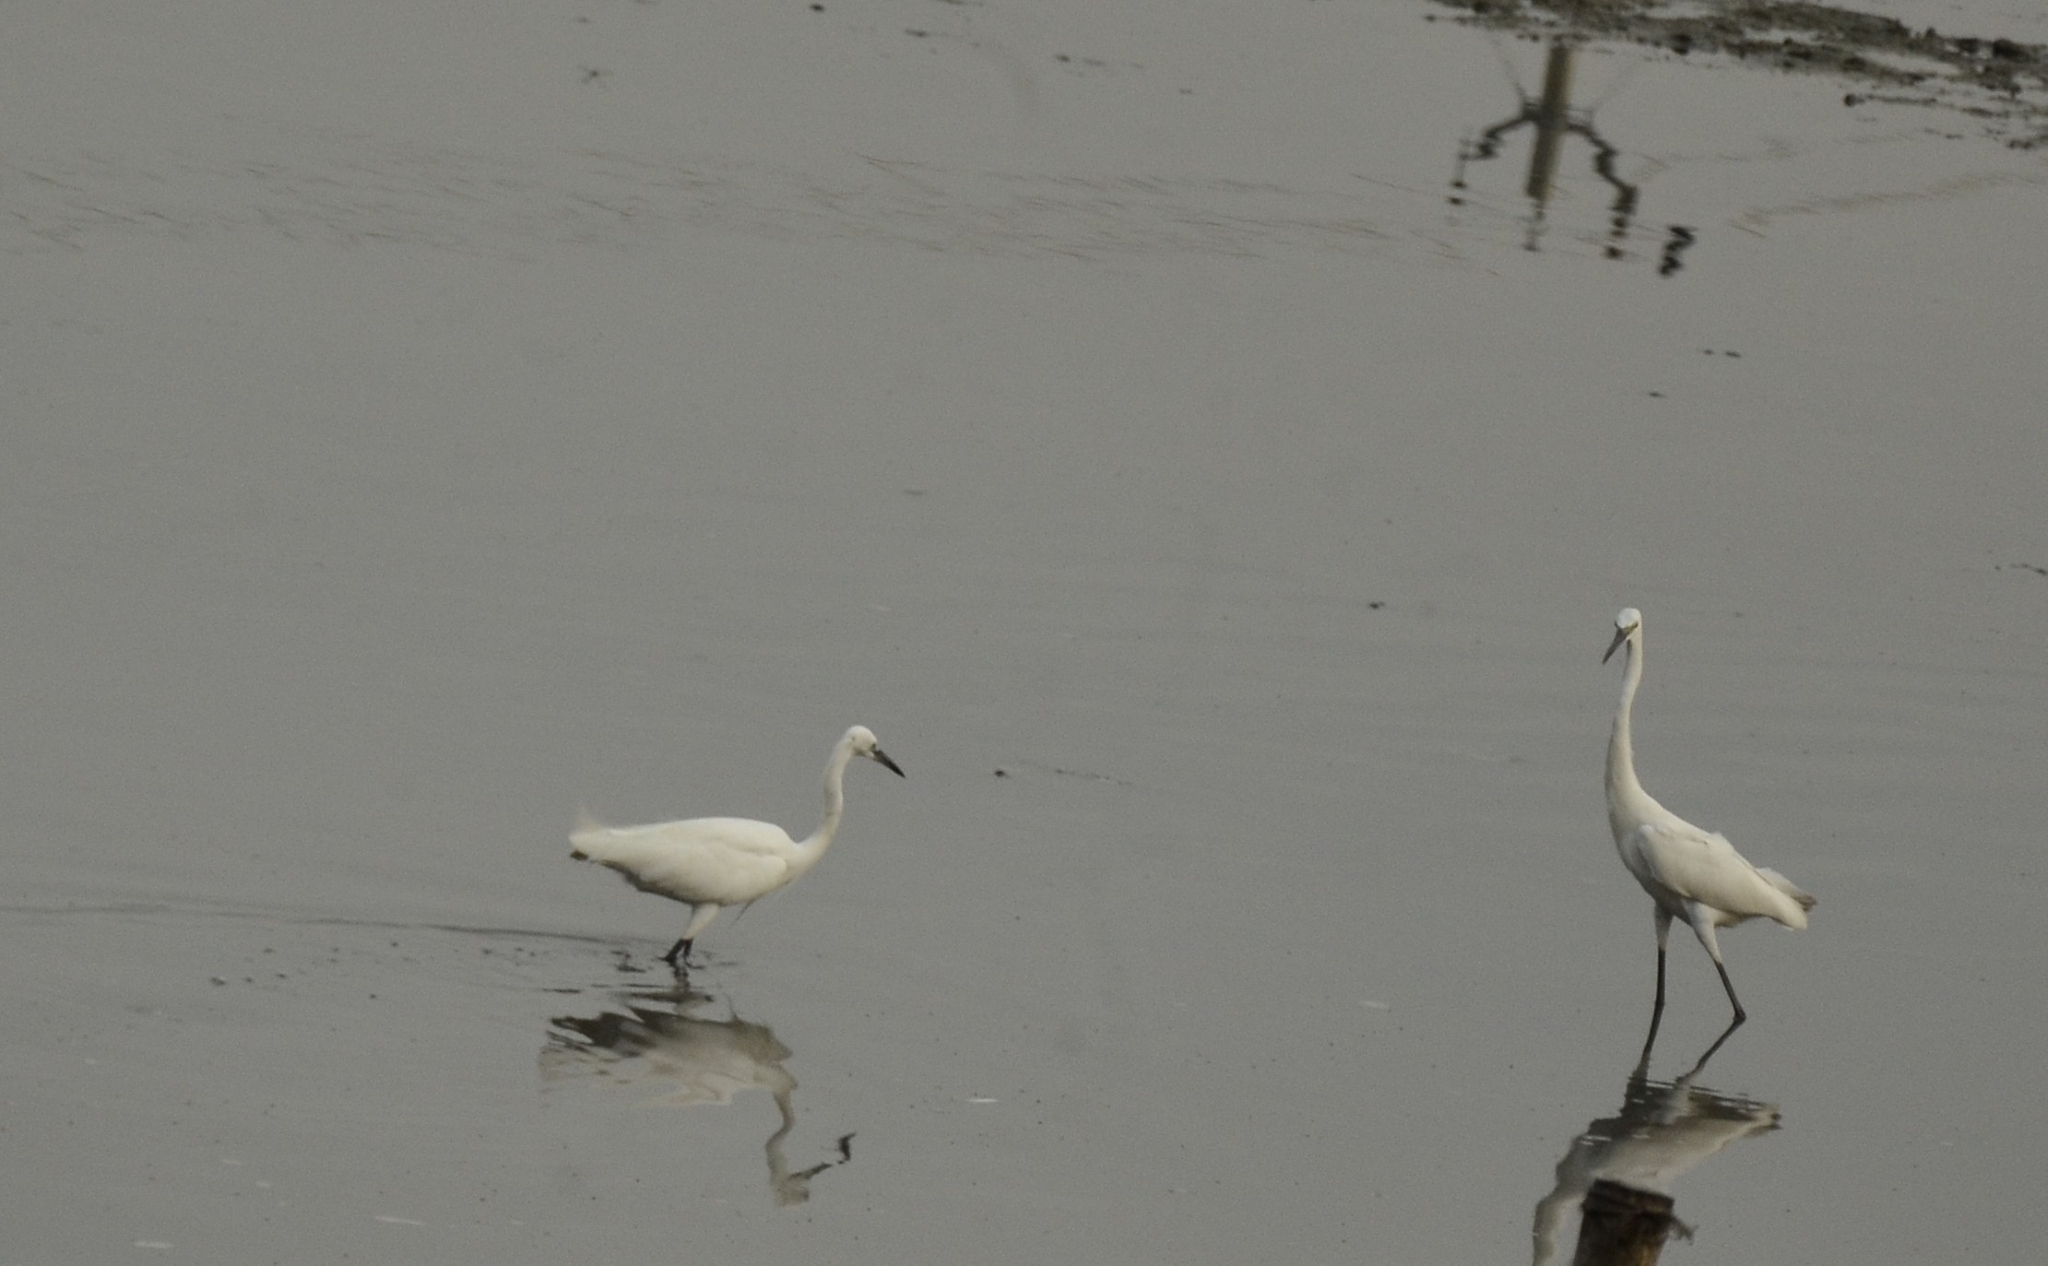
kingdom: Animalia
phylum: Chordata
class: Aves
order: Pelecaniformes
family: Ardeidae
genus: Egretta
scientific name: Egretta garzetta
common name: Little egret
